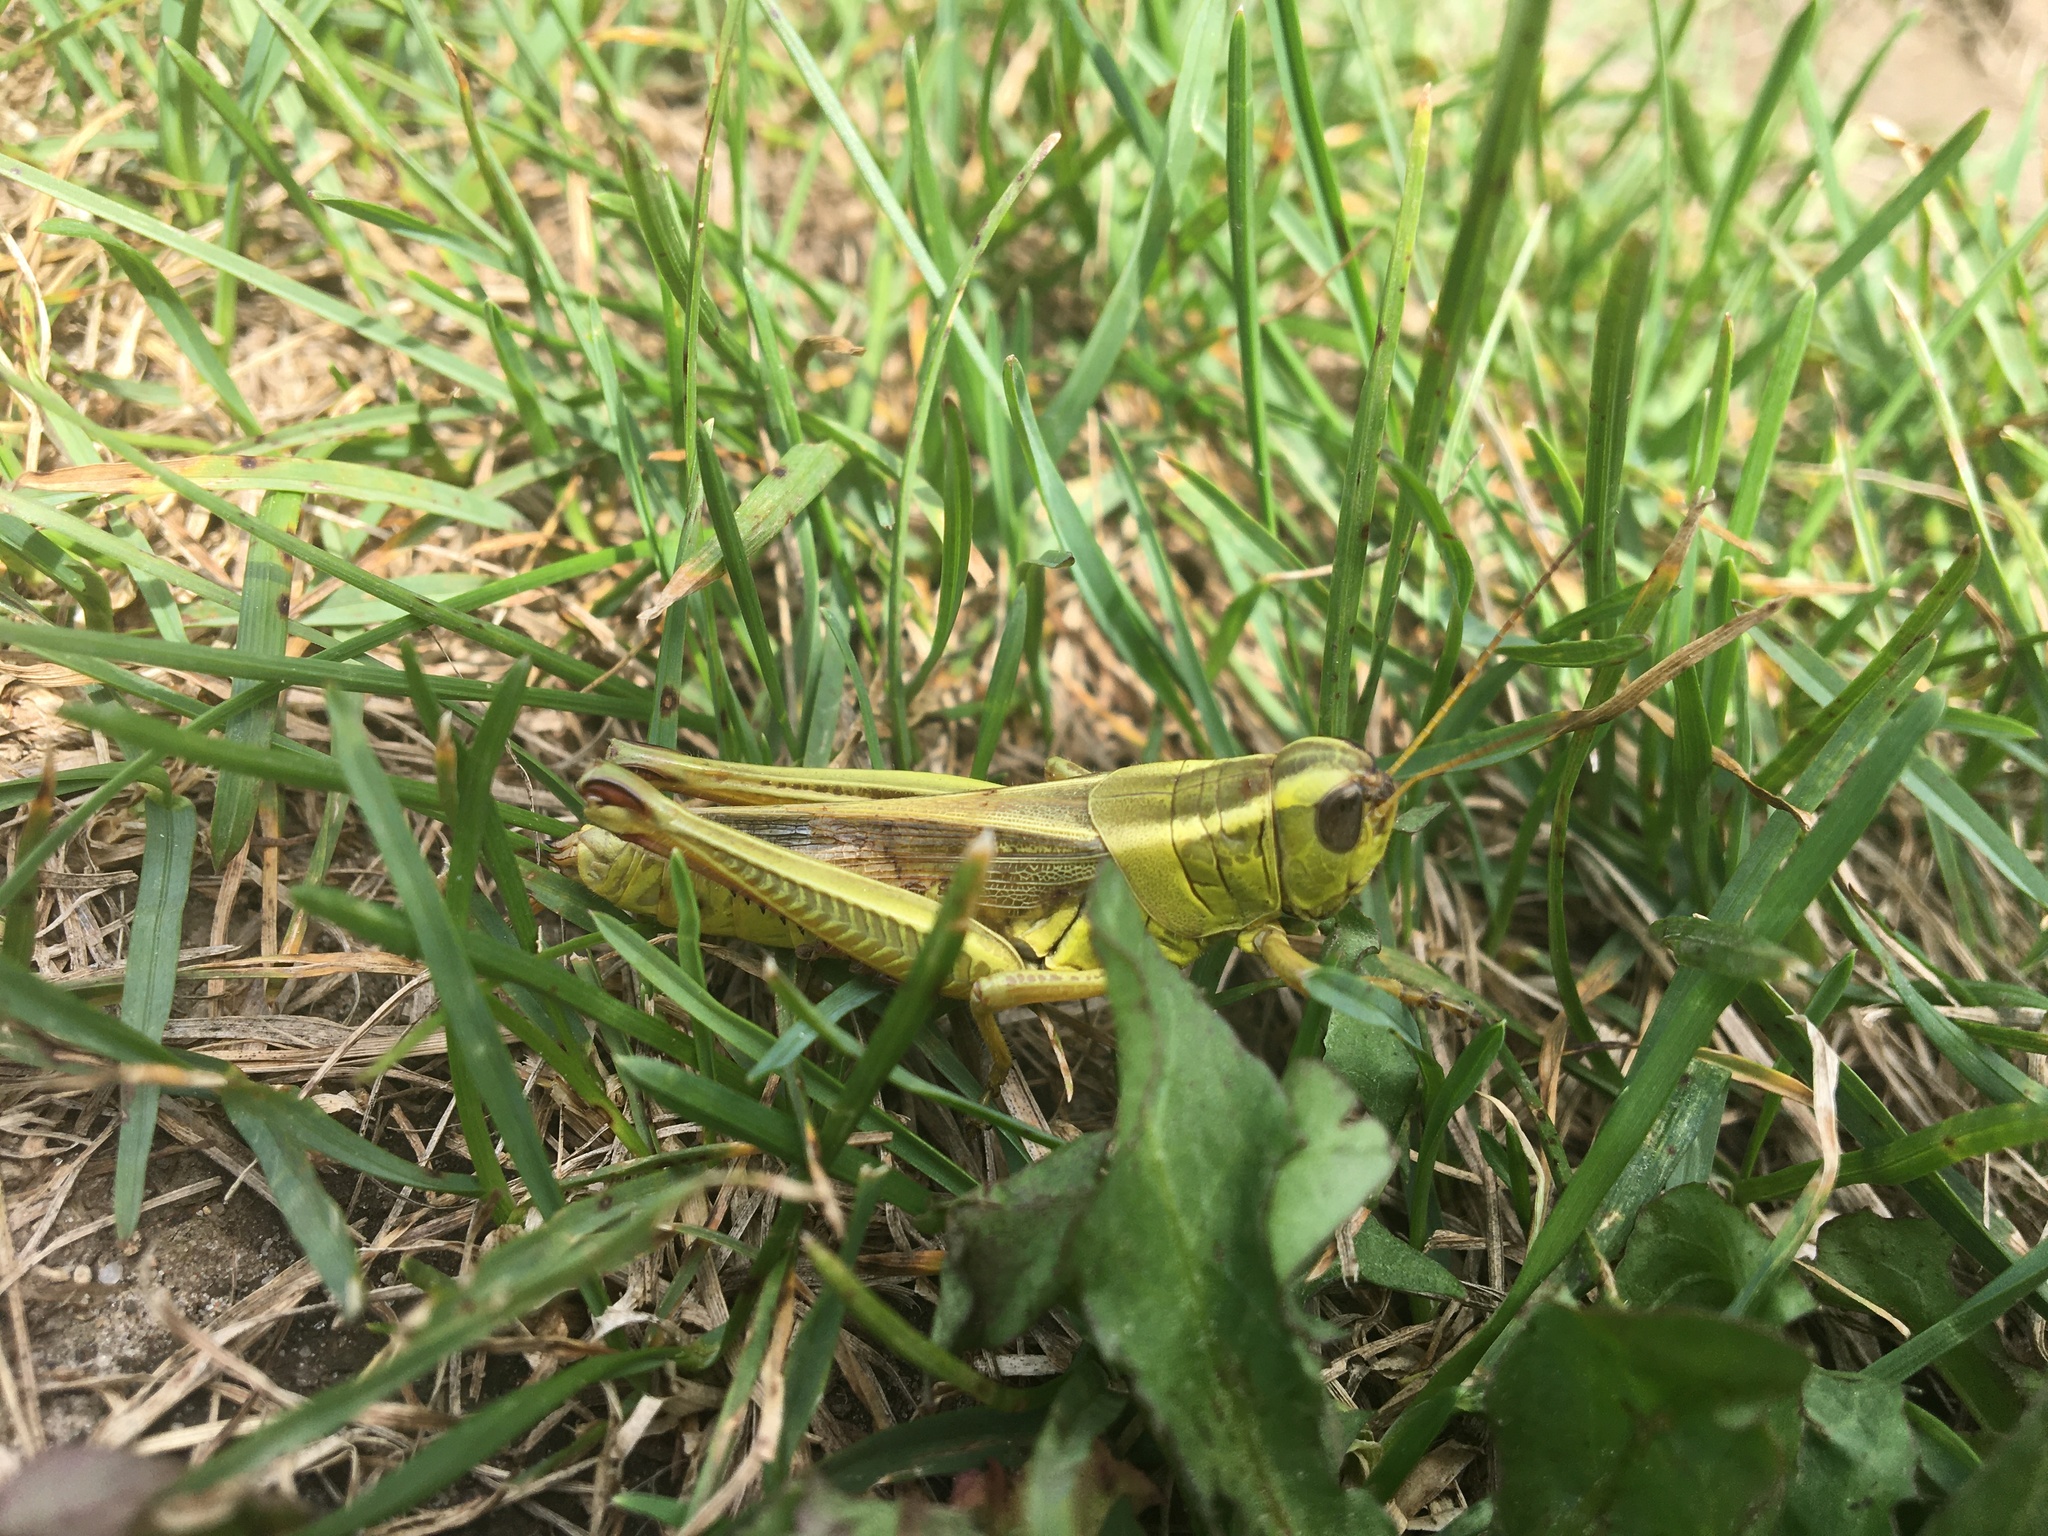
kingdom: Animalia
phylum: Arthropoda
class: Insecta
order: Orthoptera
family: Acrididae
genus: Melanoplus
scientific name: Melanoplus bivittatus
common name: Two-striped grasshopper
